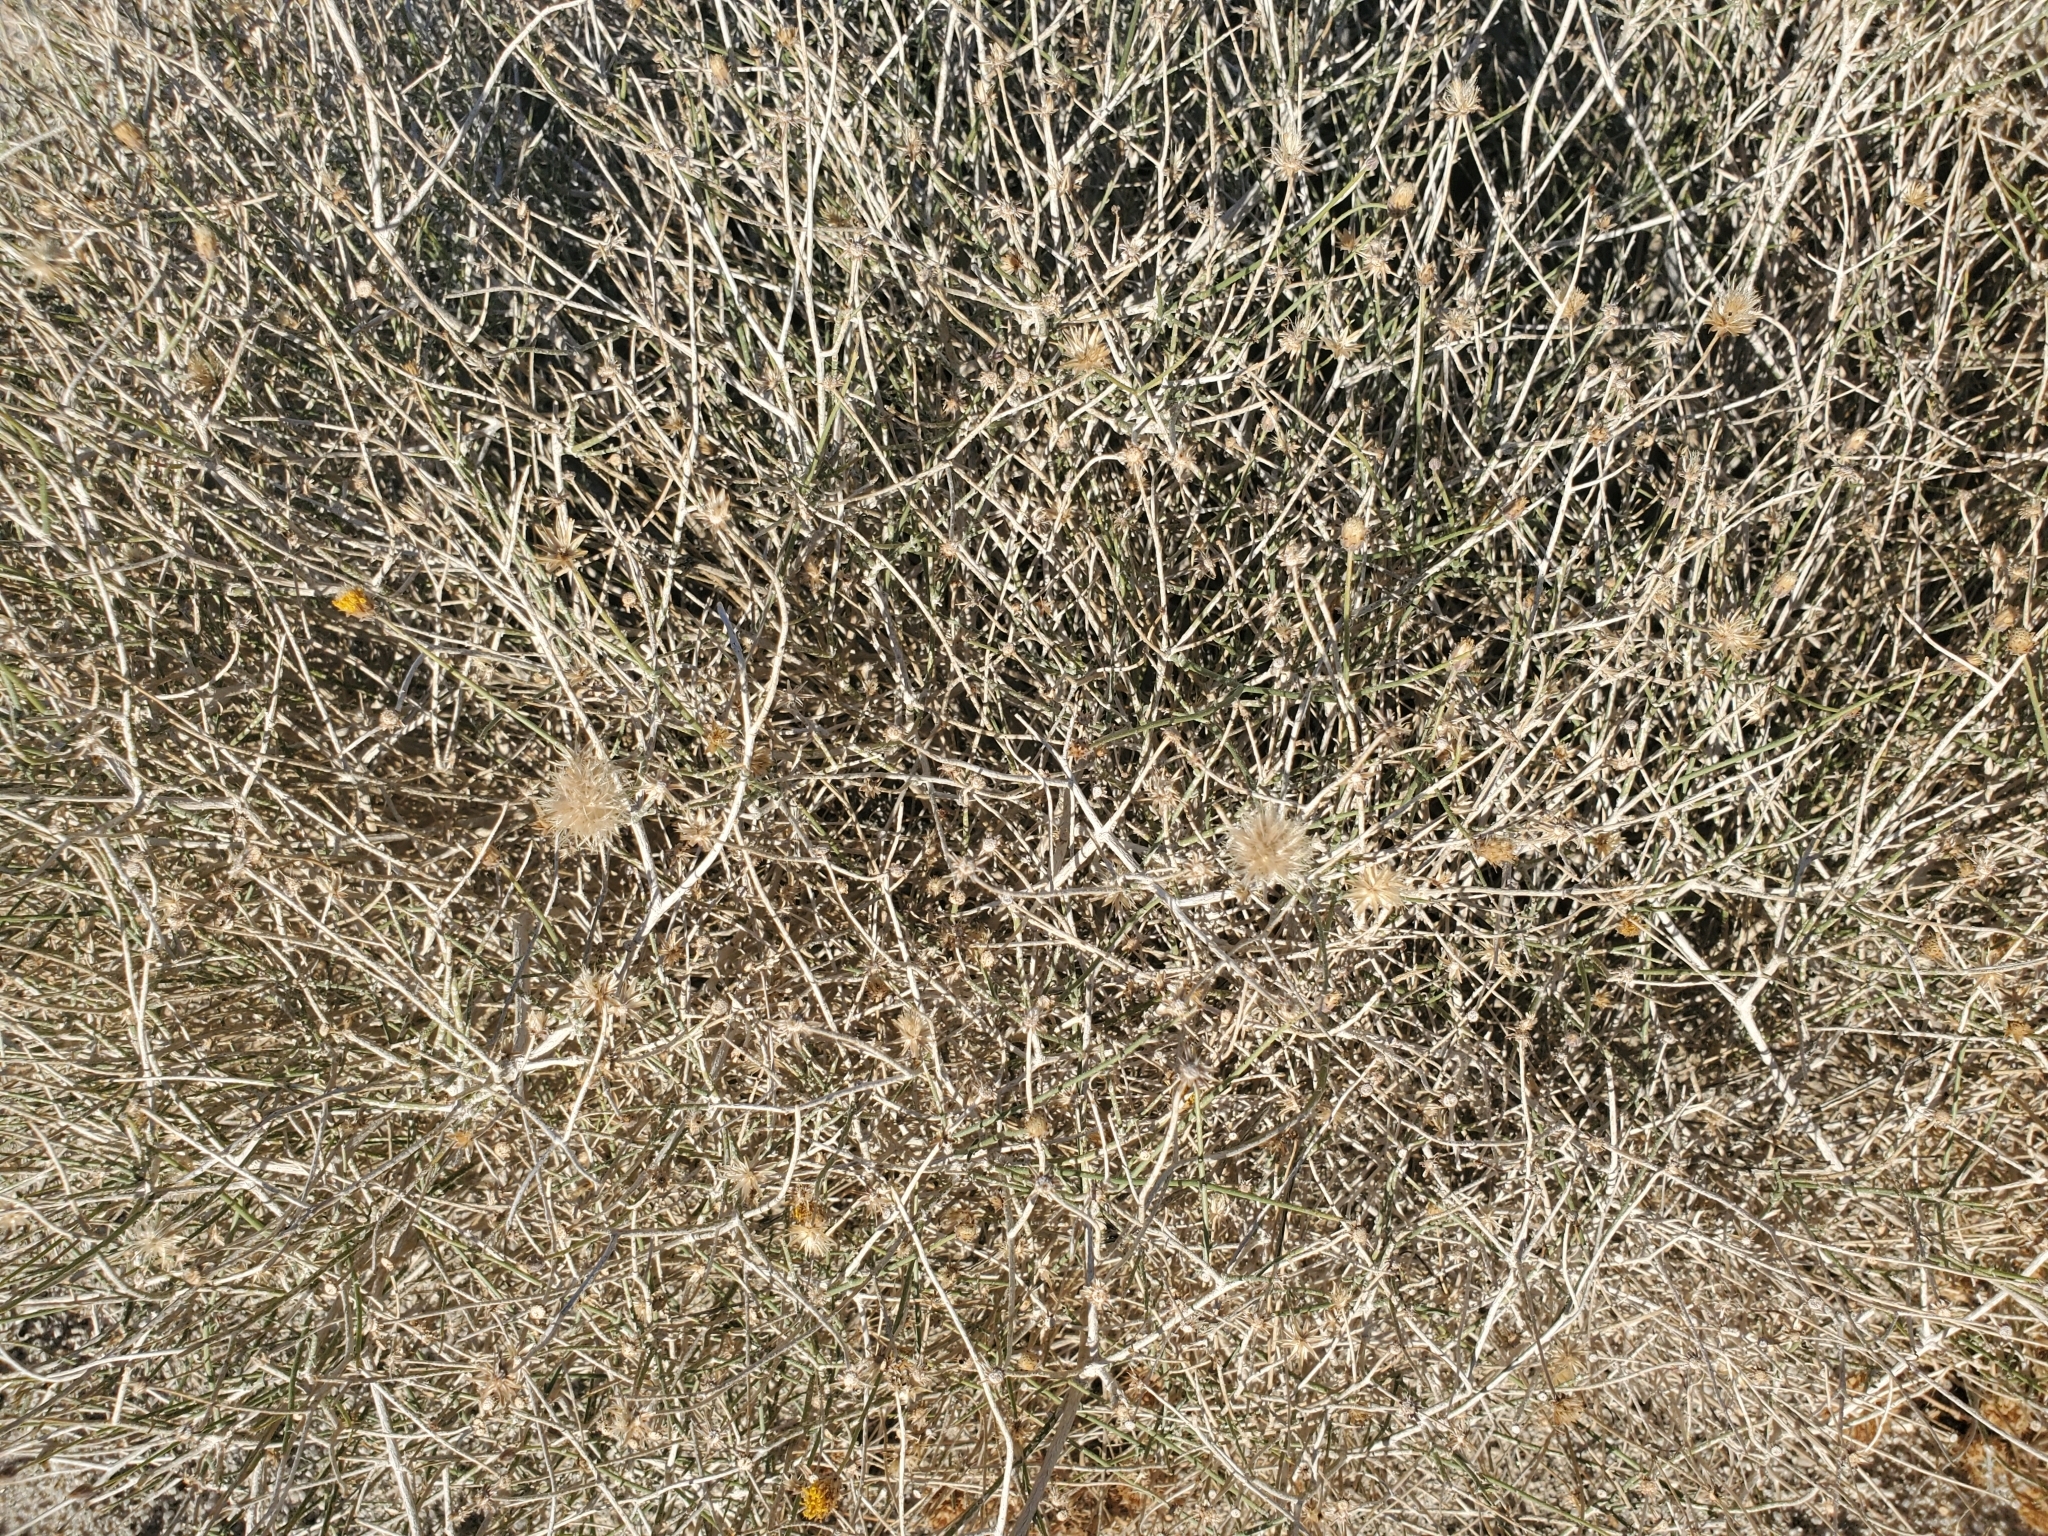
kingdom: Plantae
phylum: Tracheophyta
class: Magnoliopsida
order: Asterales
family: Asteraceae
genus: Bebbia
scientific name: Bebbia juncea
